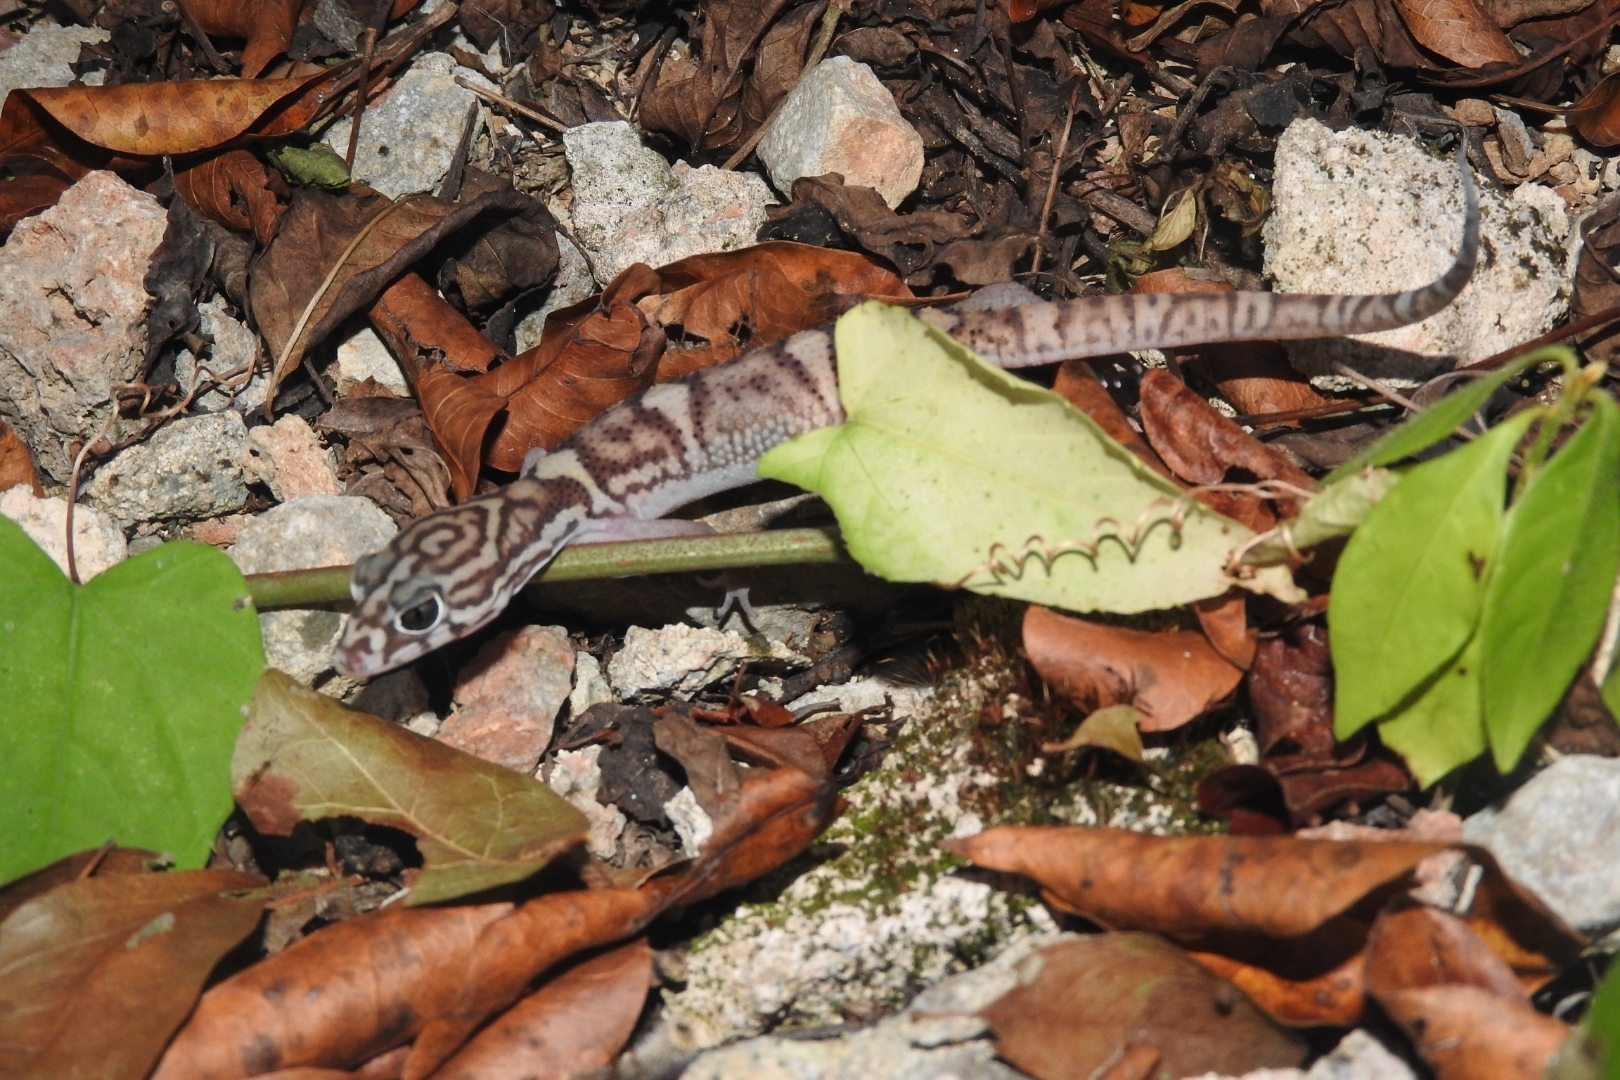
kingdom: Animalia
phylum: Chordata
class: Squamata
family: Eublepharidae
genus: Coleonyx
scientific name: Coleonyx elegans
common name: Yucatan banded gecko
